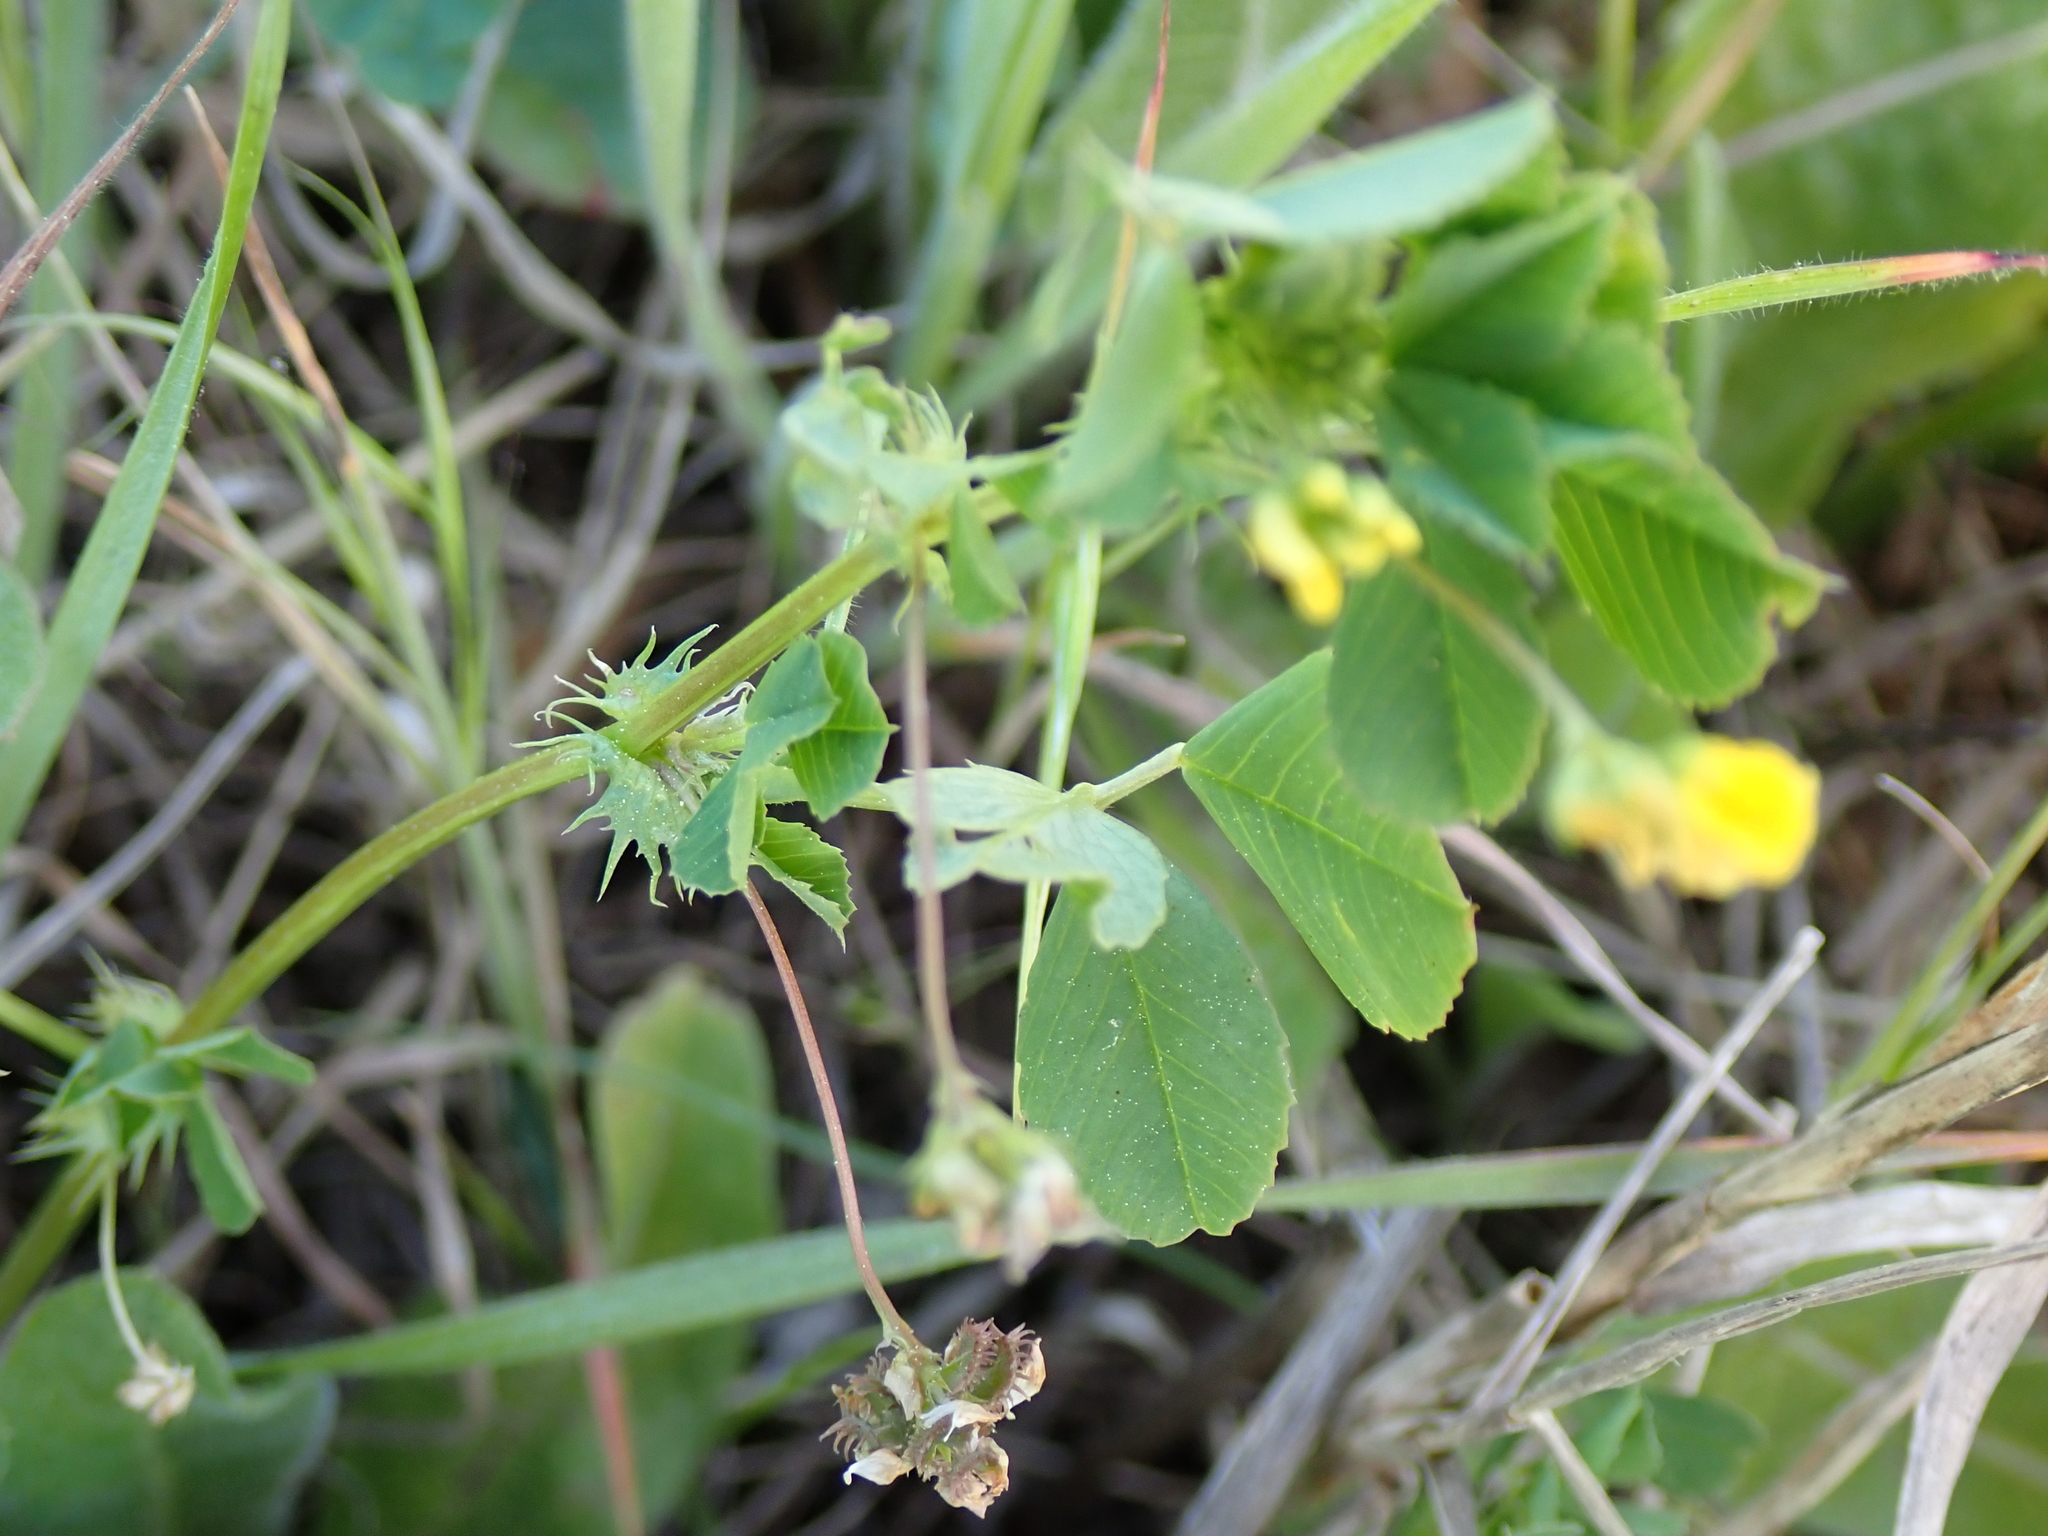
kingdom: Plantae
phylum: Tracheophyta
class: Magnoliopsida
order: Fabales
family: Fabaceae
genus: Medicago
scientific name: Medicago polymorpha
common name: Burclover
